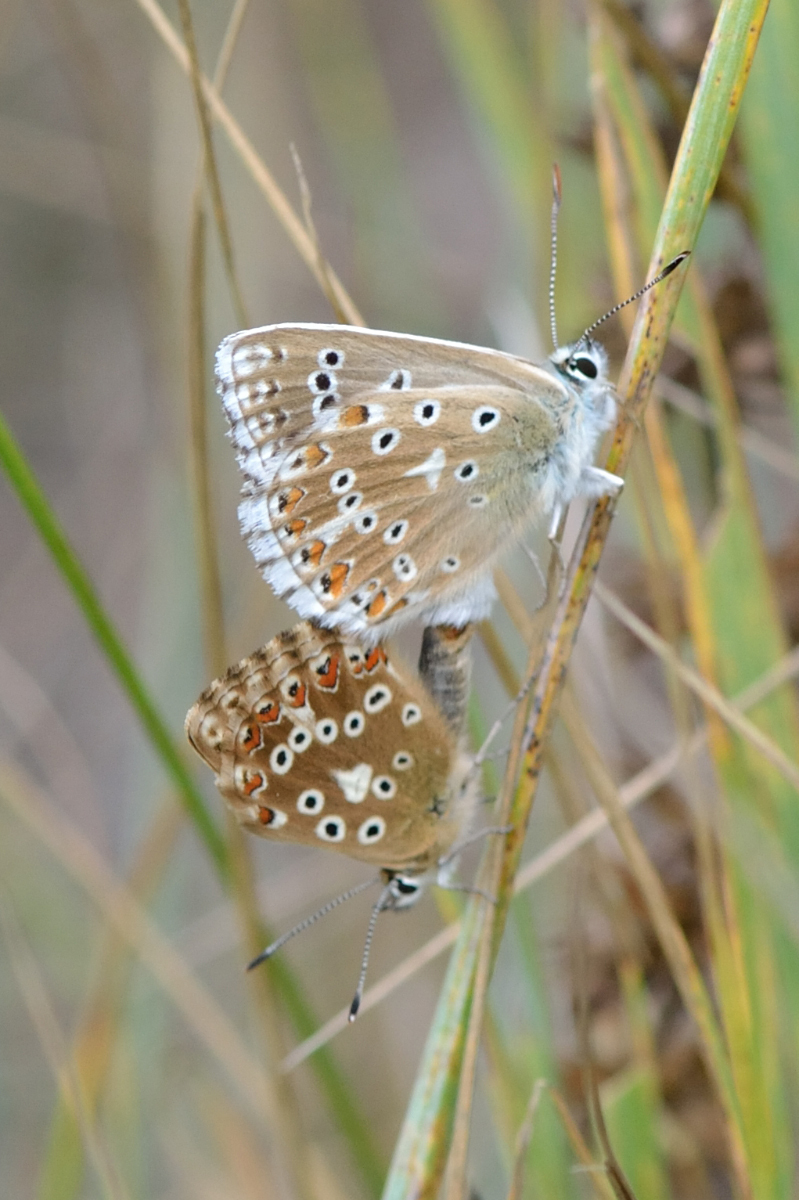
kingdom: Animalia
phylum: Arthropoda
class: Insecta
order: Lepidoptera
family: Lycaenidae
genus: Lysandra
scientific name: Lysandra coridon
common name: Chalkhill blue
